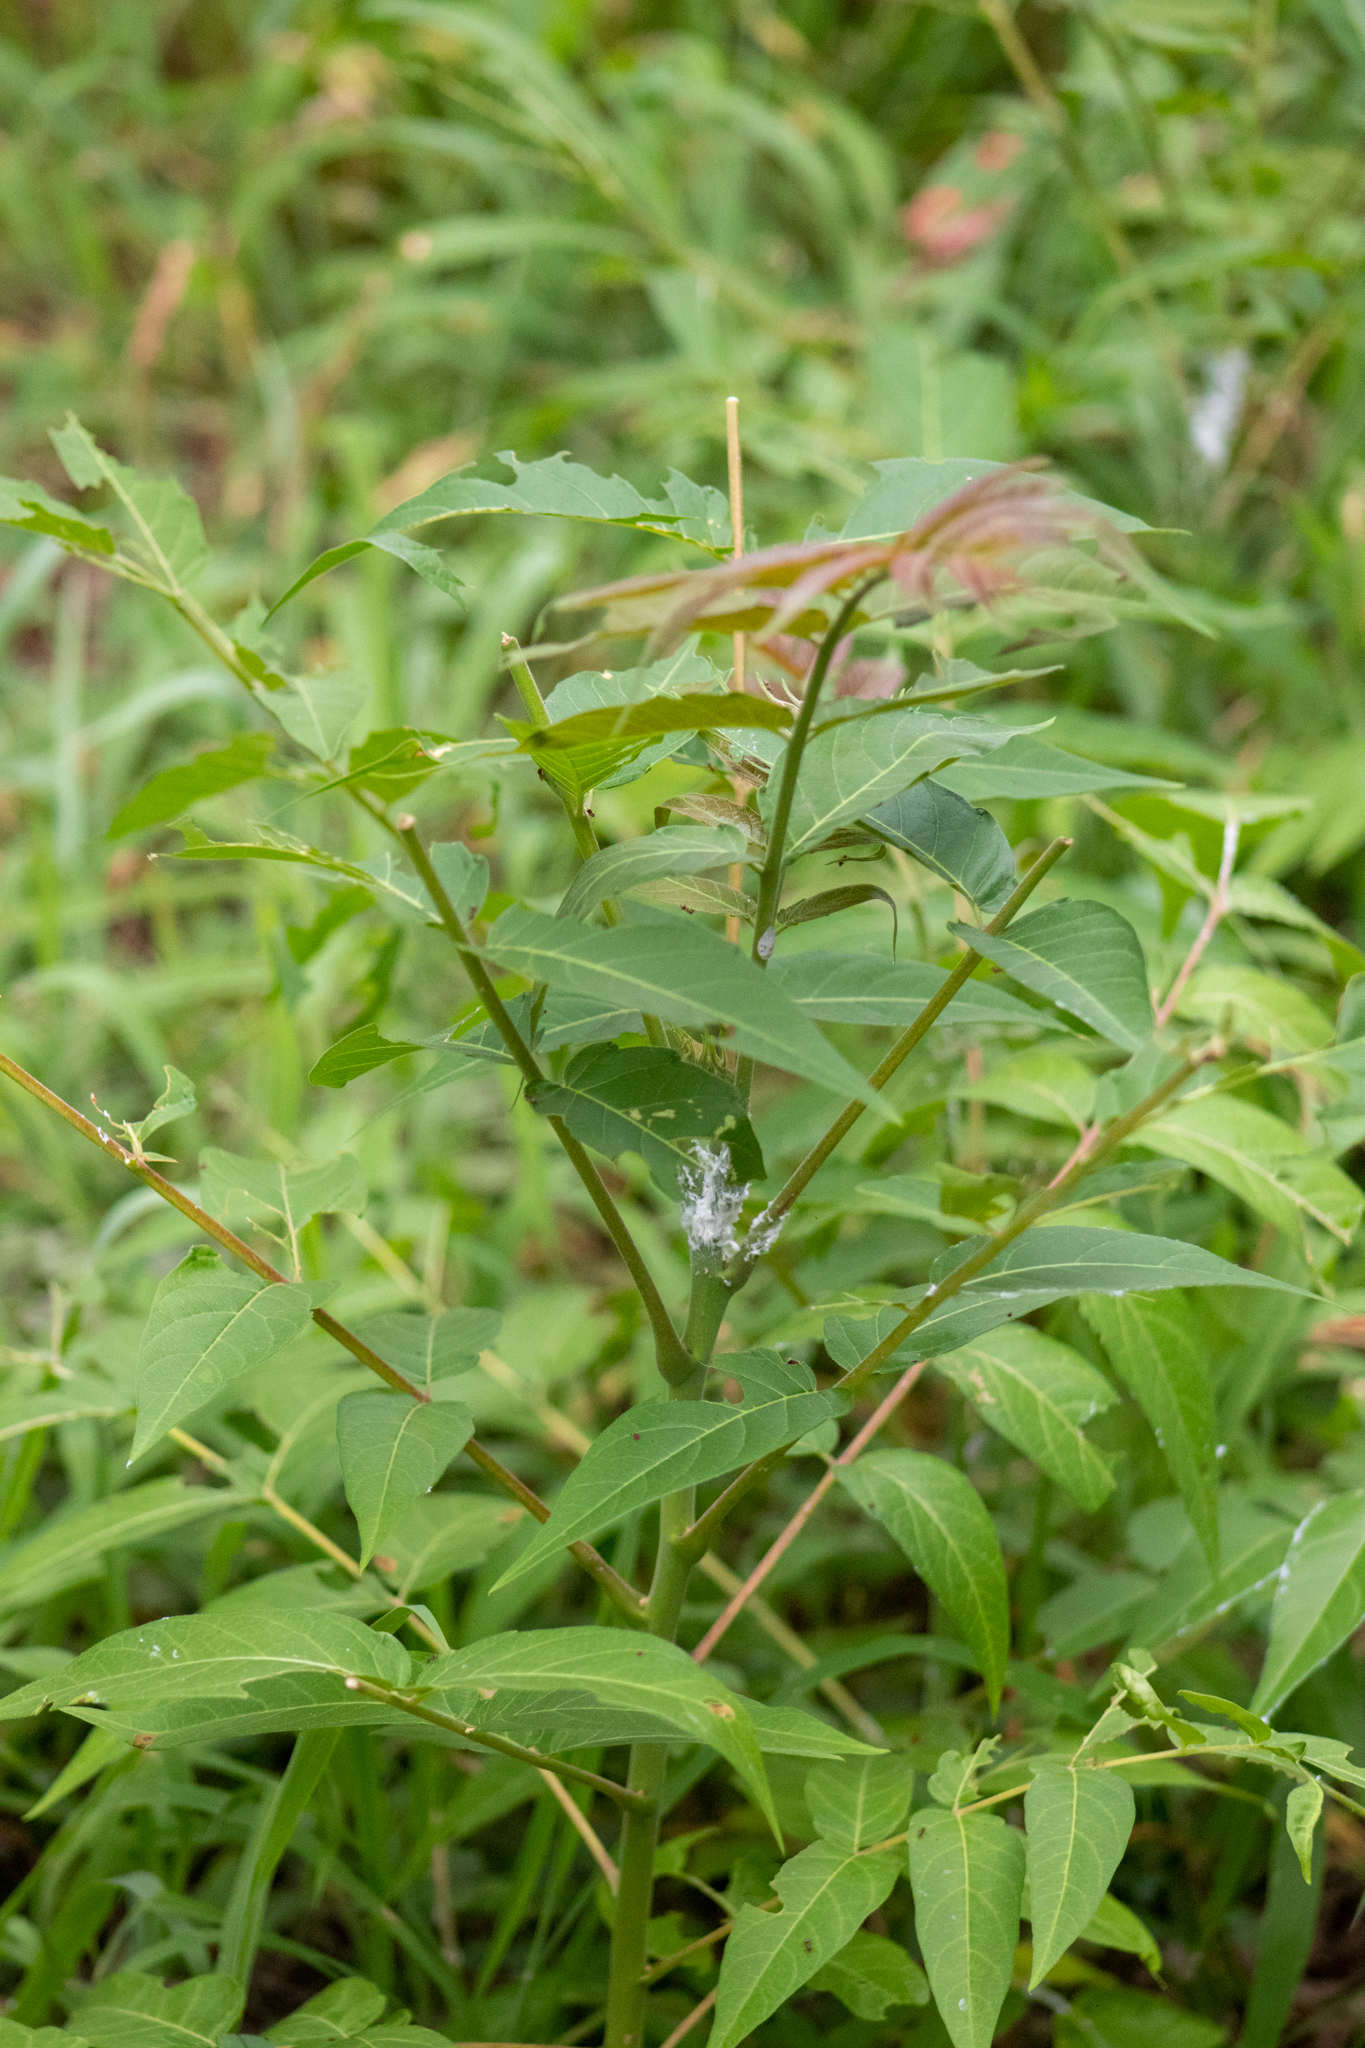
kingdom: Plantae
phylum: Tracheophyta
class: Magnoliopsida
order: Sapindales
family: Simaroubaceae
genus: Ailanthus
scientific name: Ailanthus altissima
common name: Tree-of-heaven
